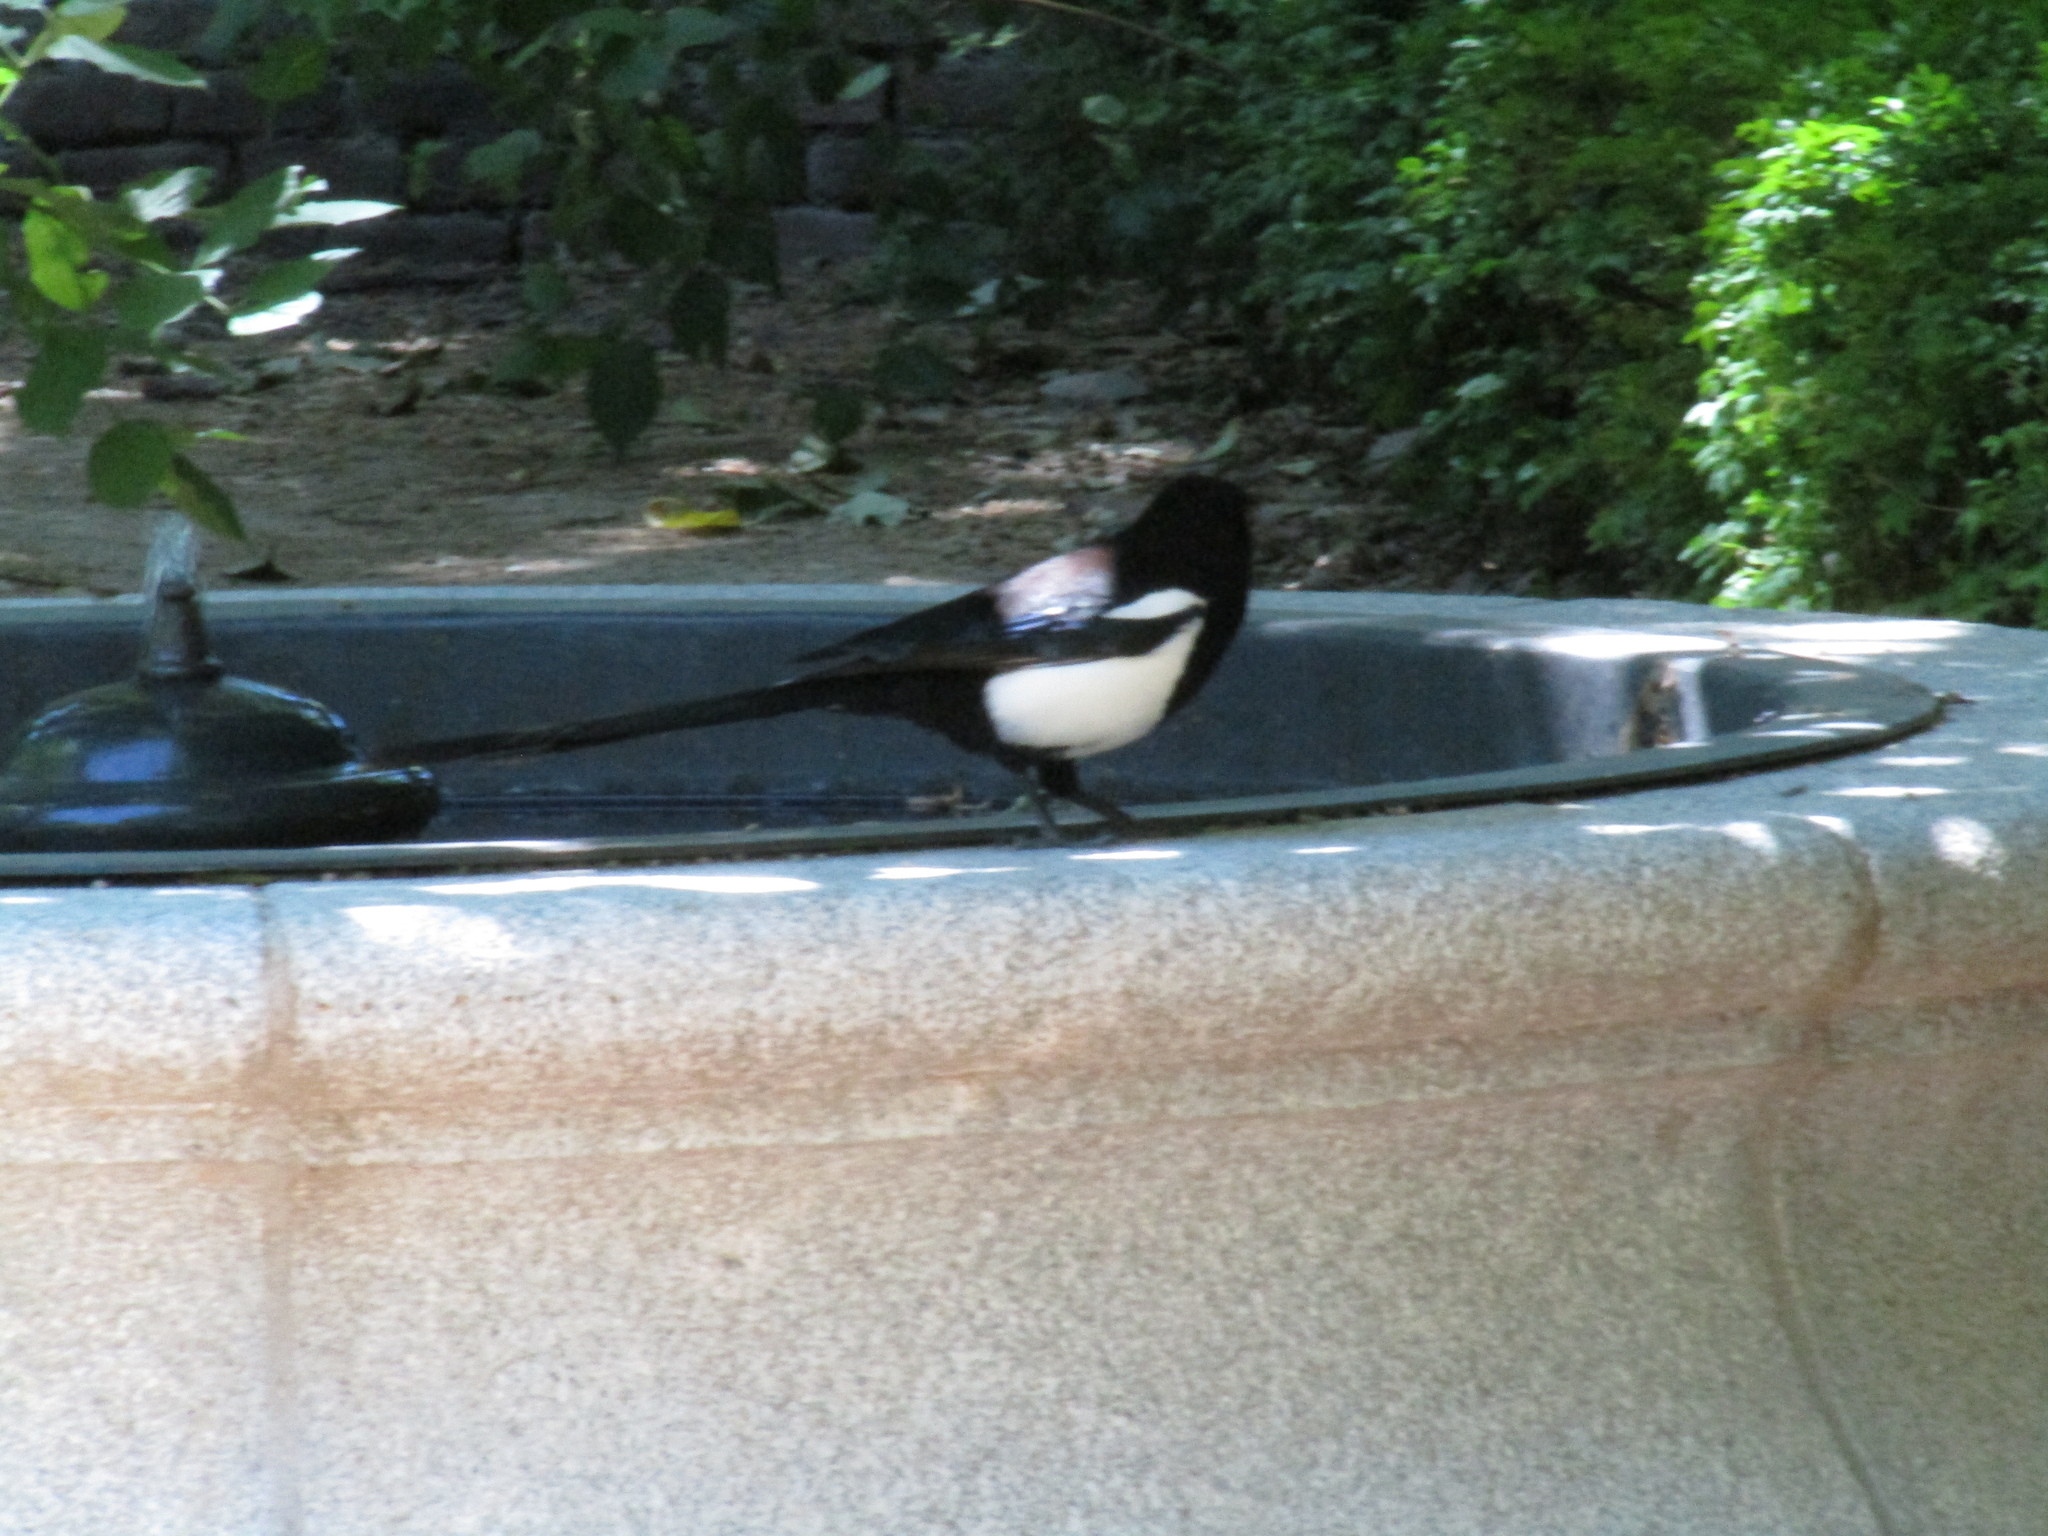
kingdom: Animalia
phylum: Chordata
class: Aves
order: Passeriformes
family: Corvidae
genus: Pica
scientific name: Pica pica
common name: Eurasian magpie
